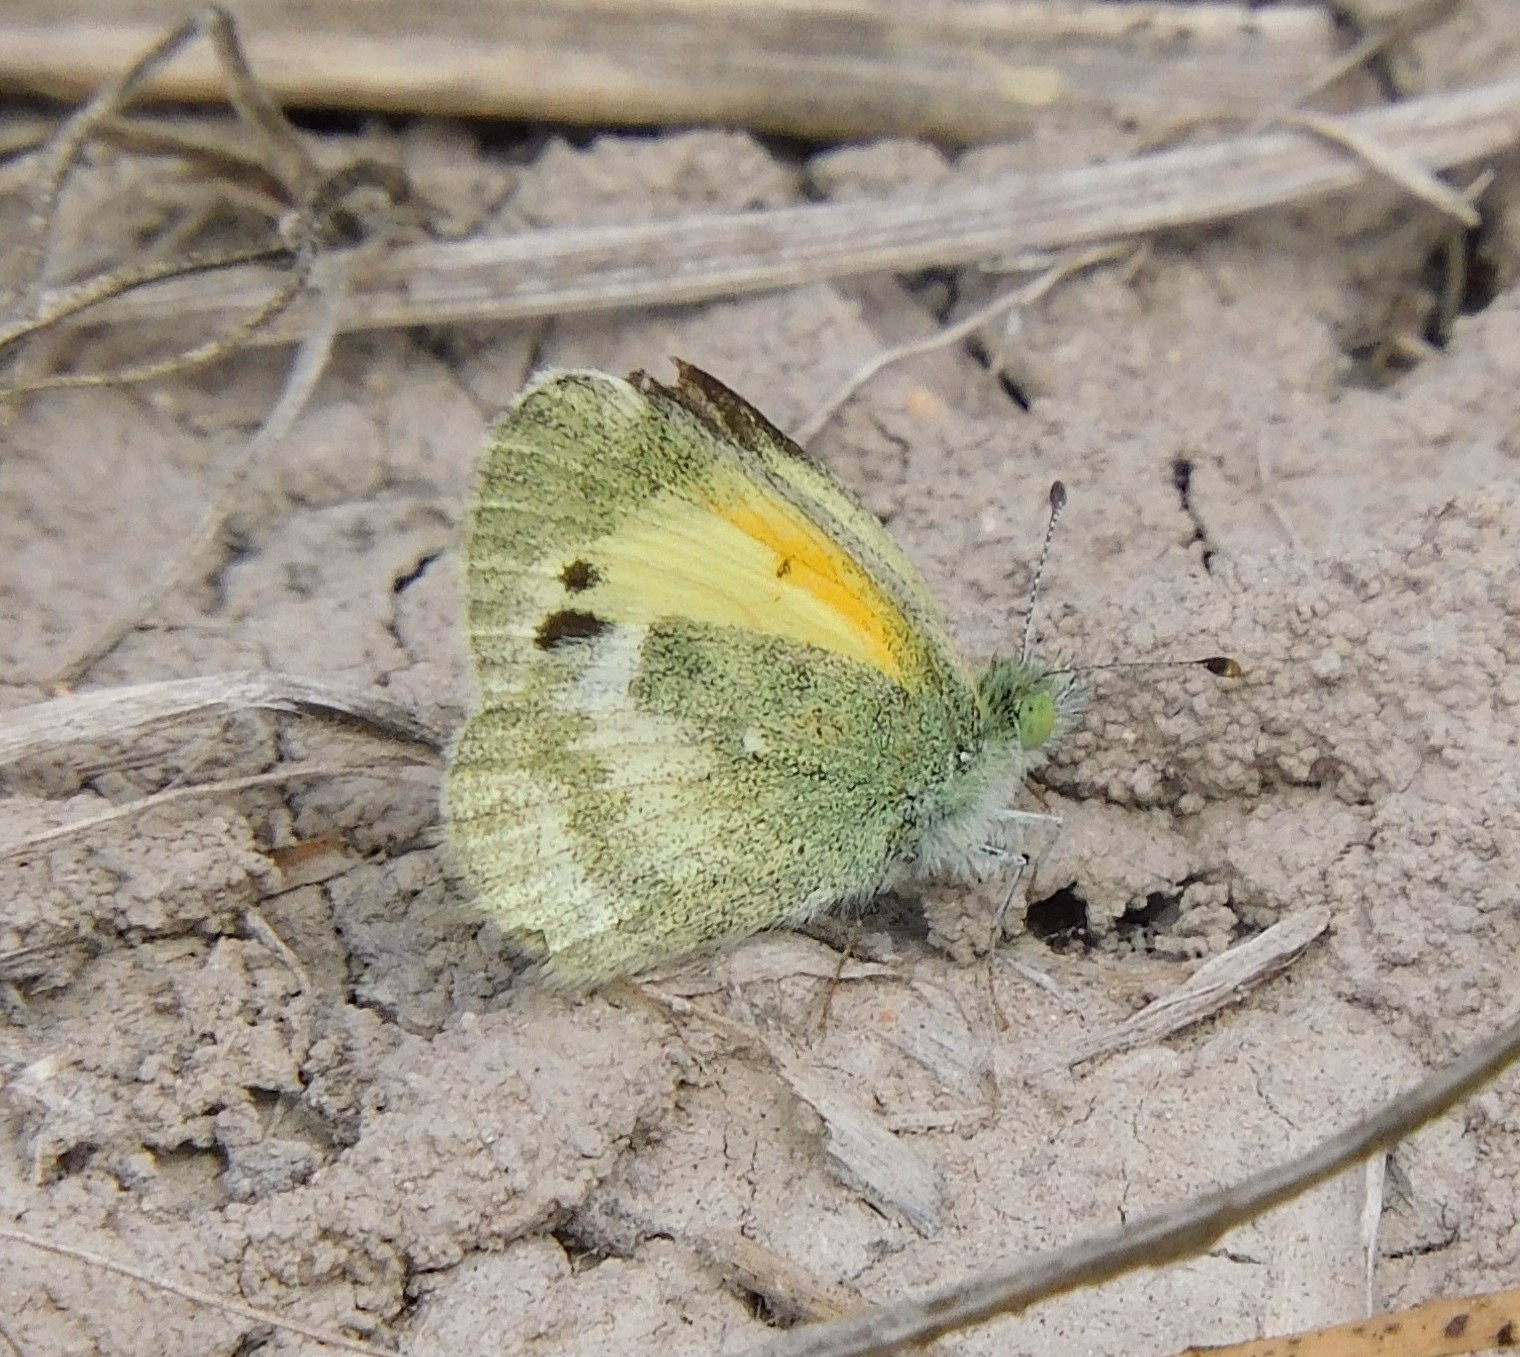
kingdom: Animalia
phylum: Arthropoda
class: Insecta
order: Lepidoptera
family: Pieridae
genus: Nathalis
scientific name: Nathalis iole
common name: Dainty sulphur
